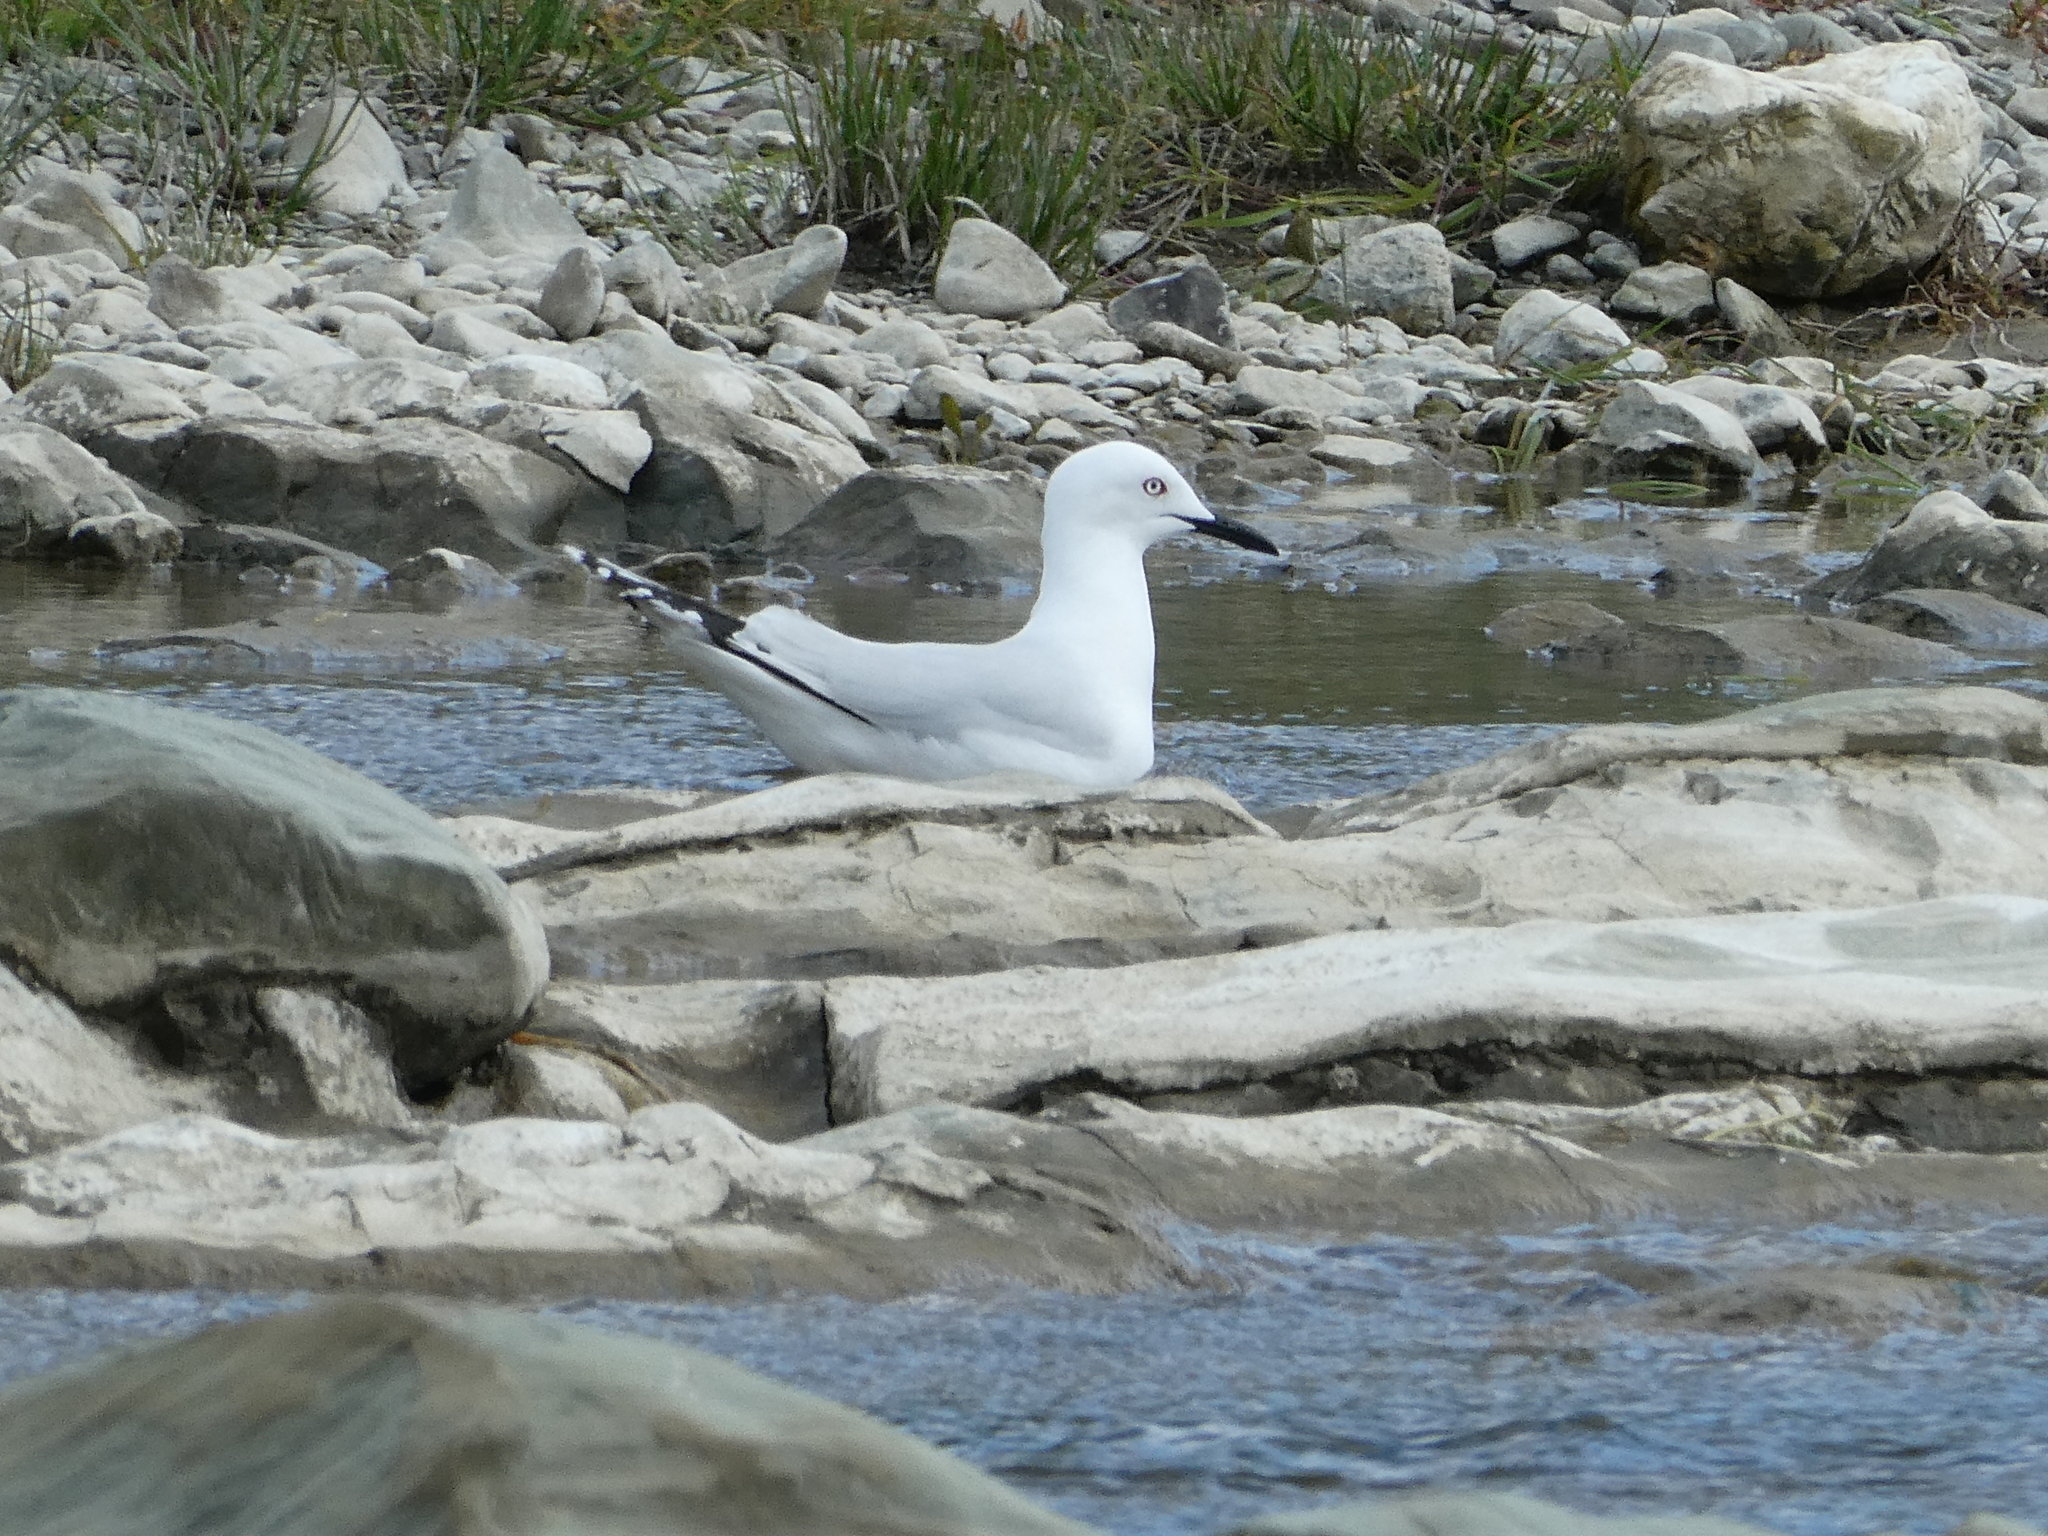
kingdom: Animalia
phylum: Chordata
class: Aves
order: Charadriiformes
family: Laridae
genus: Chroicocephalus
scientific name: Chroicocephalus bulleri
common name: Black-billed gull
